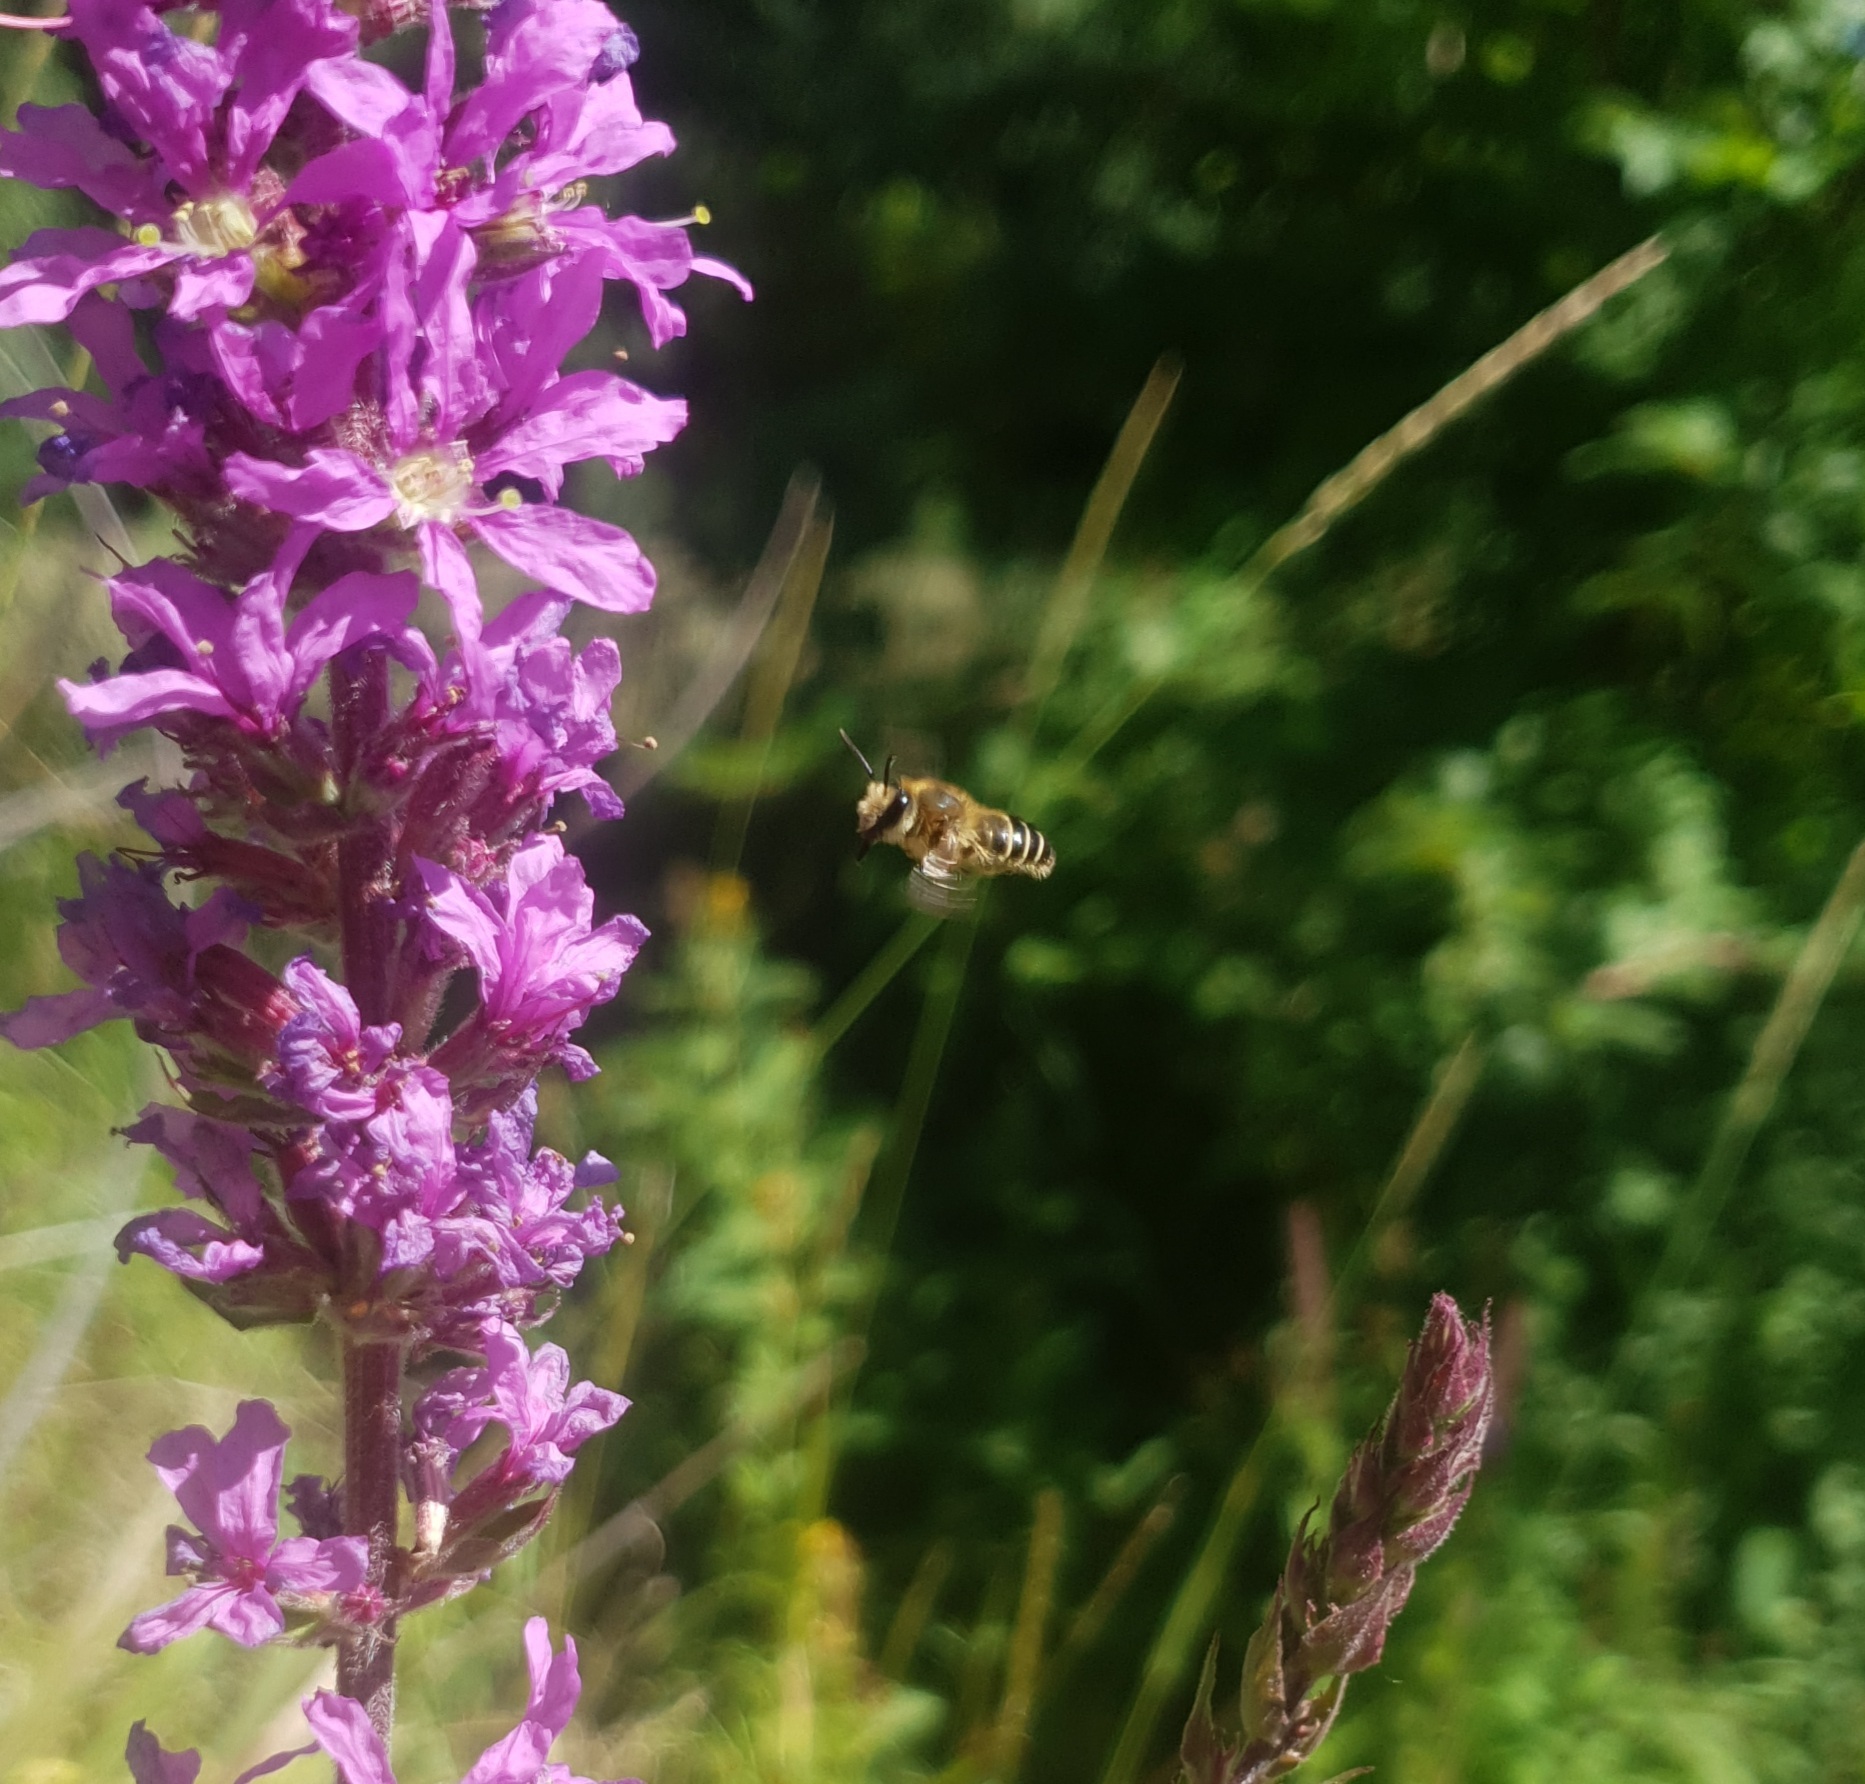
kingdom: Animalia
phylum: Arthropoda
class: Insecta
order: Hymenoptera
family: Melittidae
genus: Melitta
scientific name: Melitta nigricans
